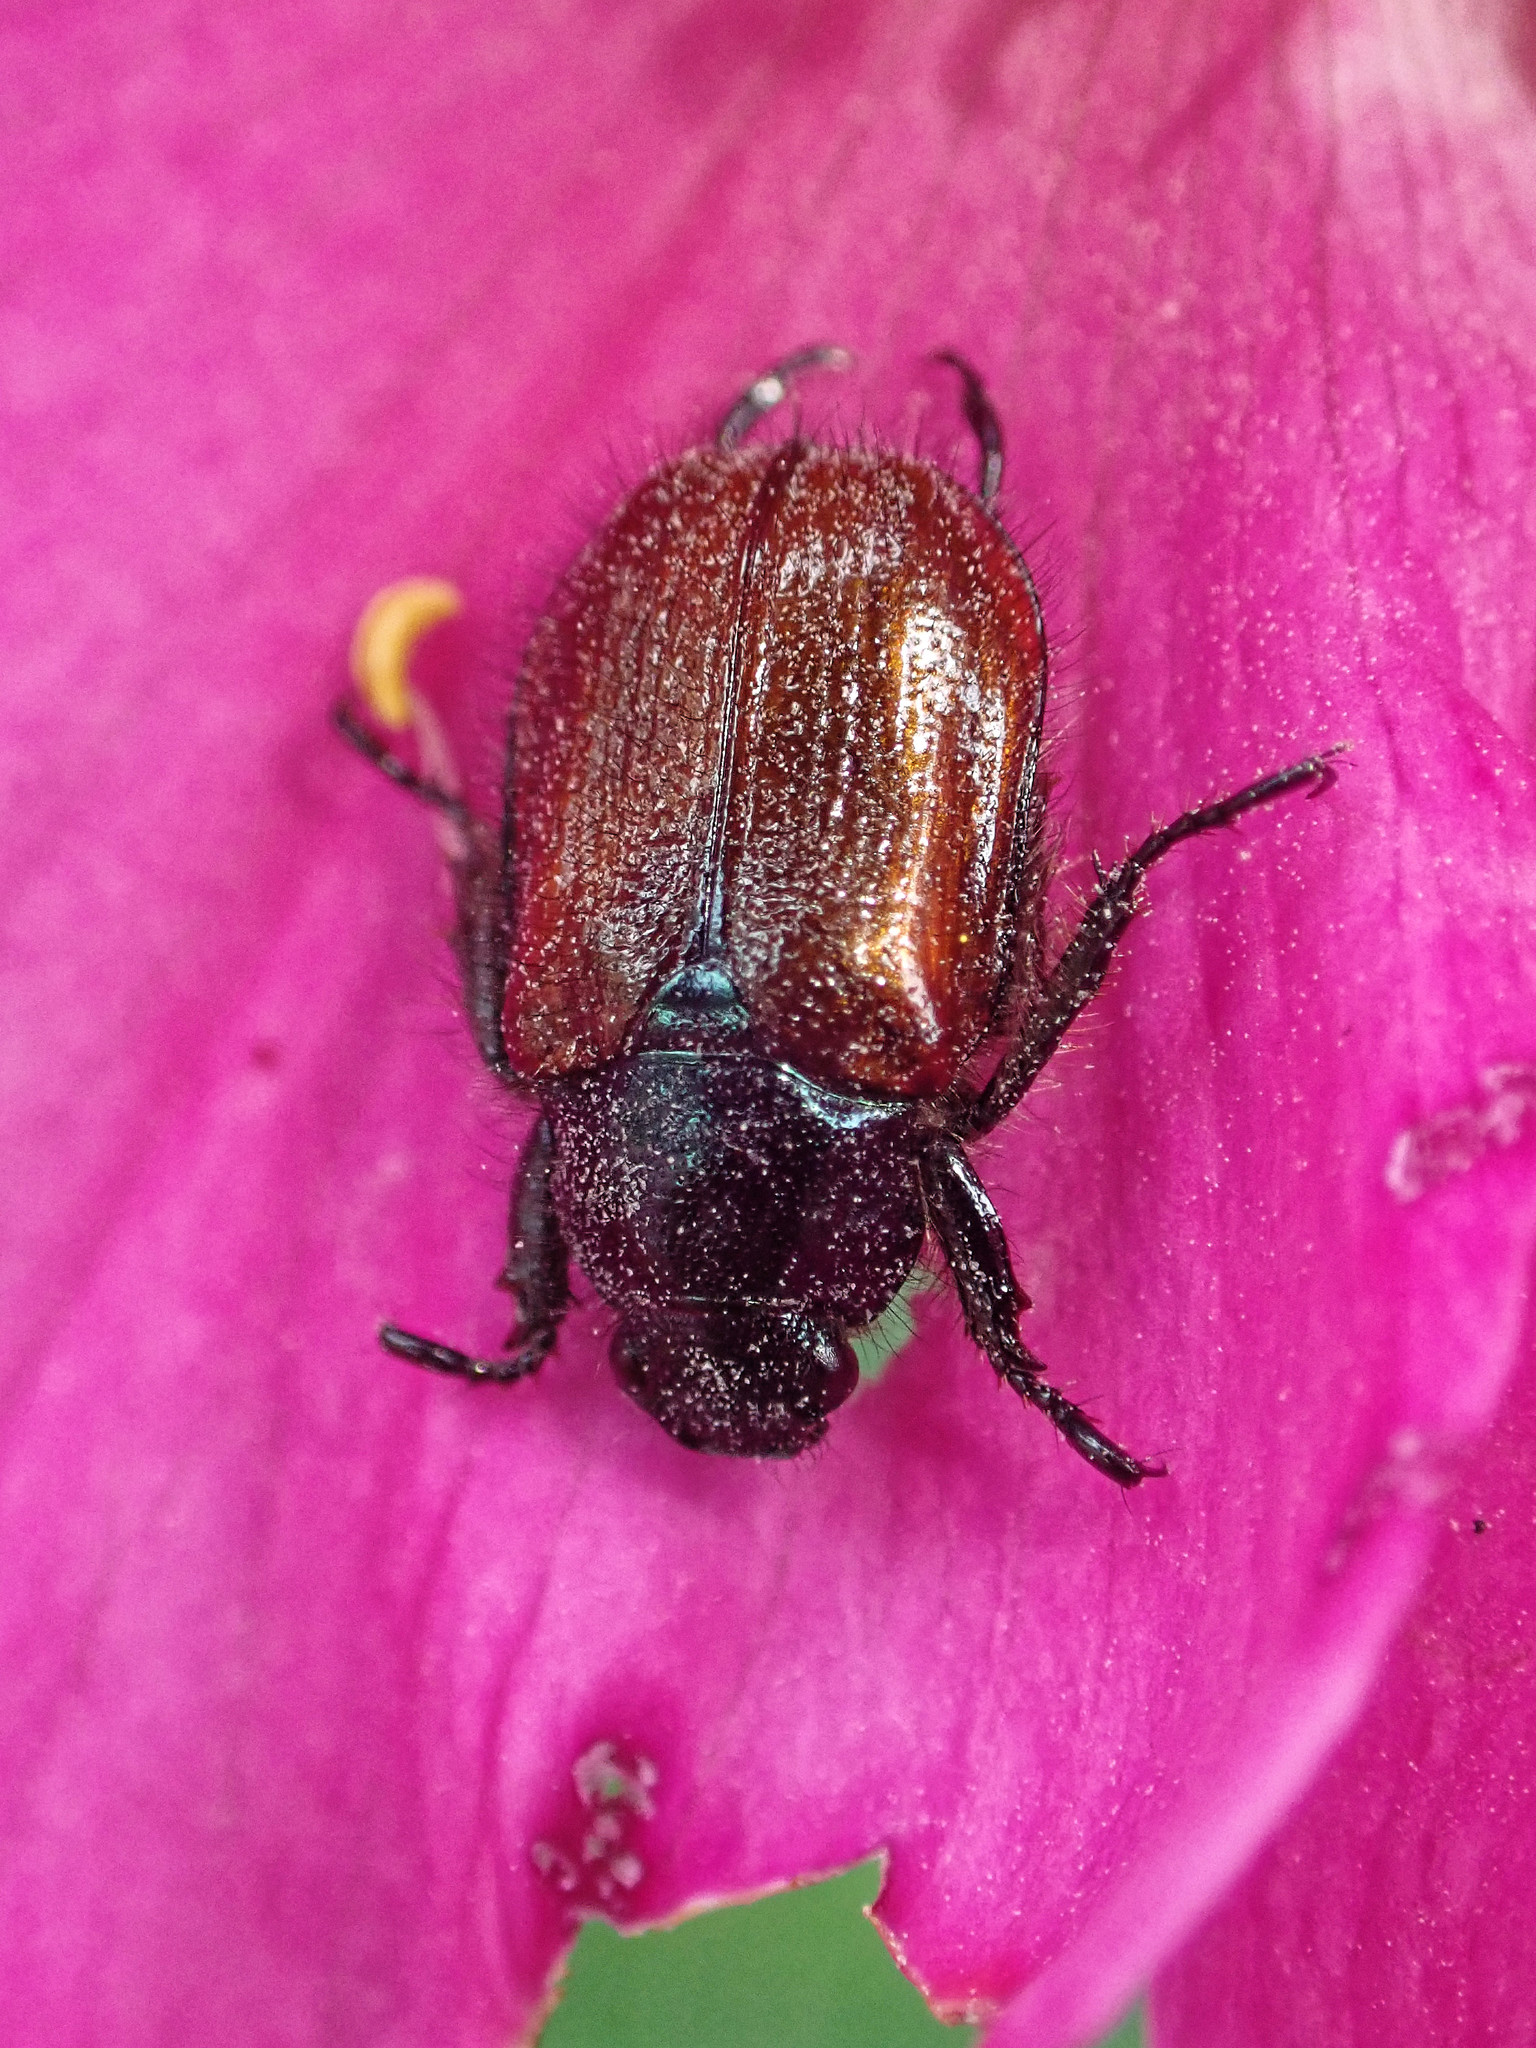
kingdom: Animalia
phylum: Arthropoda
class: Insecta
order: Coleoptera
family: Scarabaeidae
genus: Phyllopertha
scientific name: Phyllopertha horticola
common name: Garden chafer
